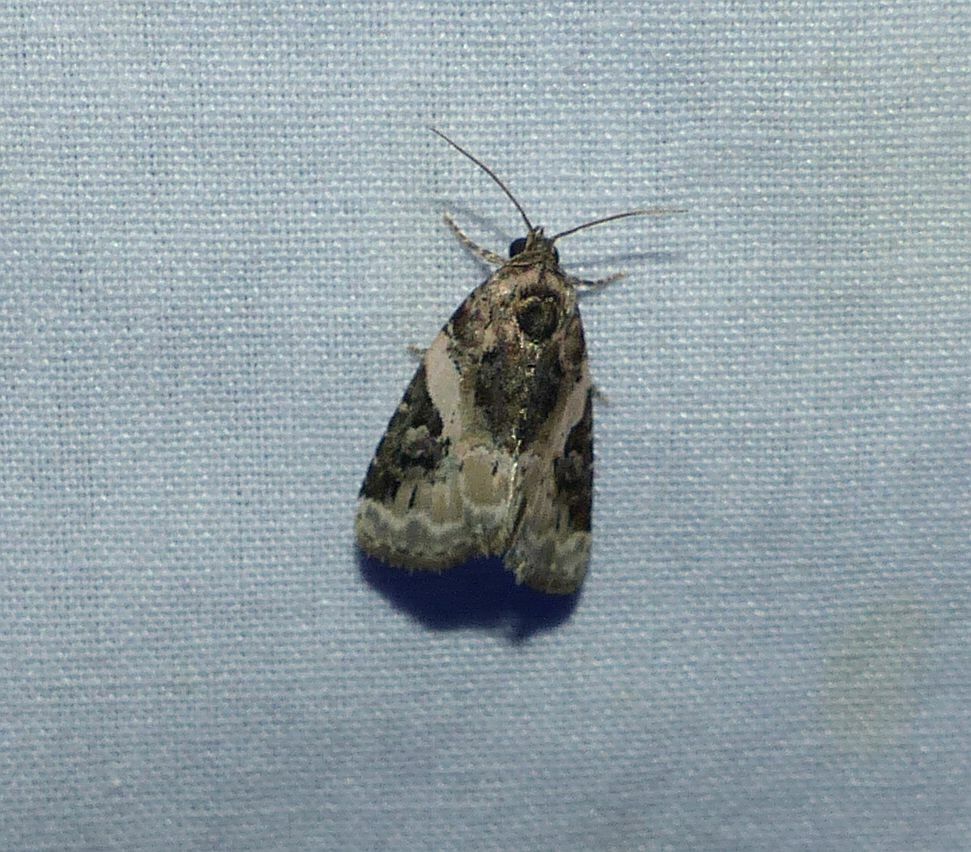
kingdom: Animalia
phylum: Arthropoda
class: Insecta
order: Lepidoptera
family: Noctuidae
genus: Pseudeustrotia
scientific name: Pseudeustrotia carneola
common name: Pink-barred lithacodia moth
